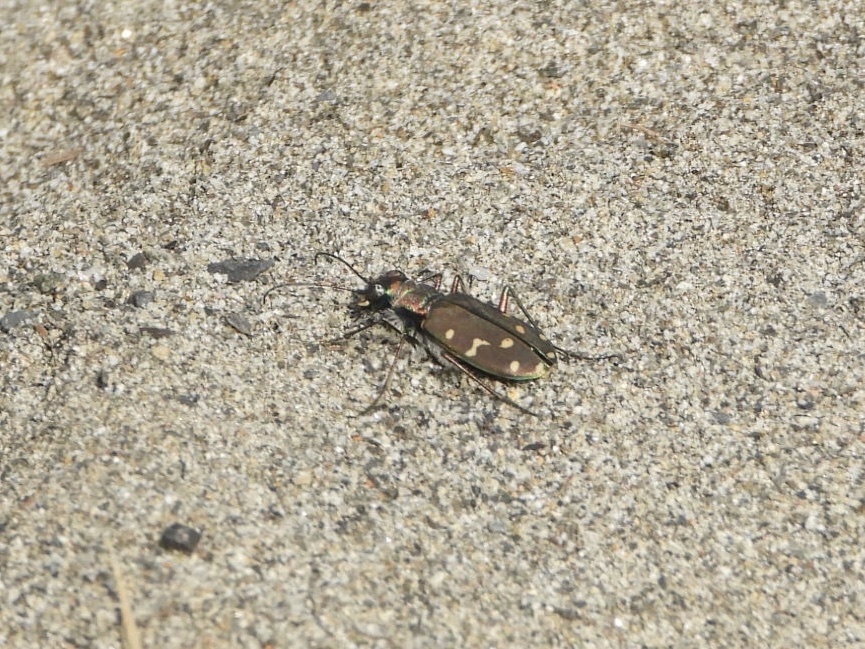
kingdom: Animalia
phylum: Arthropoda
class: Insecta
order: Coleoptera
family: Carabidae
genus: Cicindela
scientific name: Cicindela oregona
